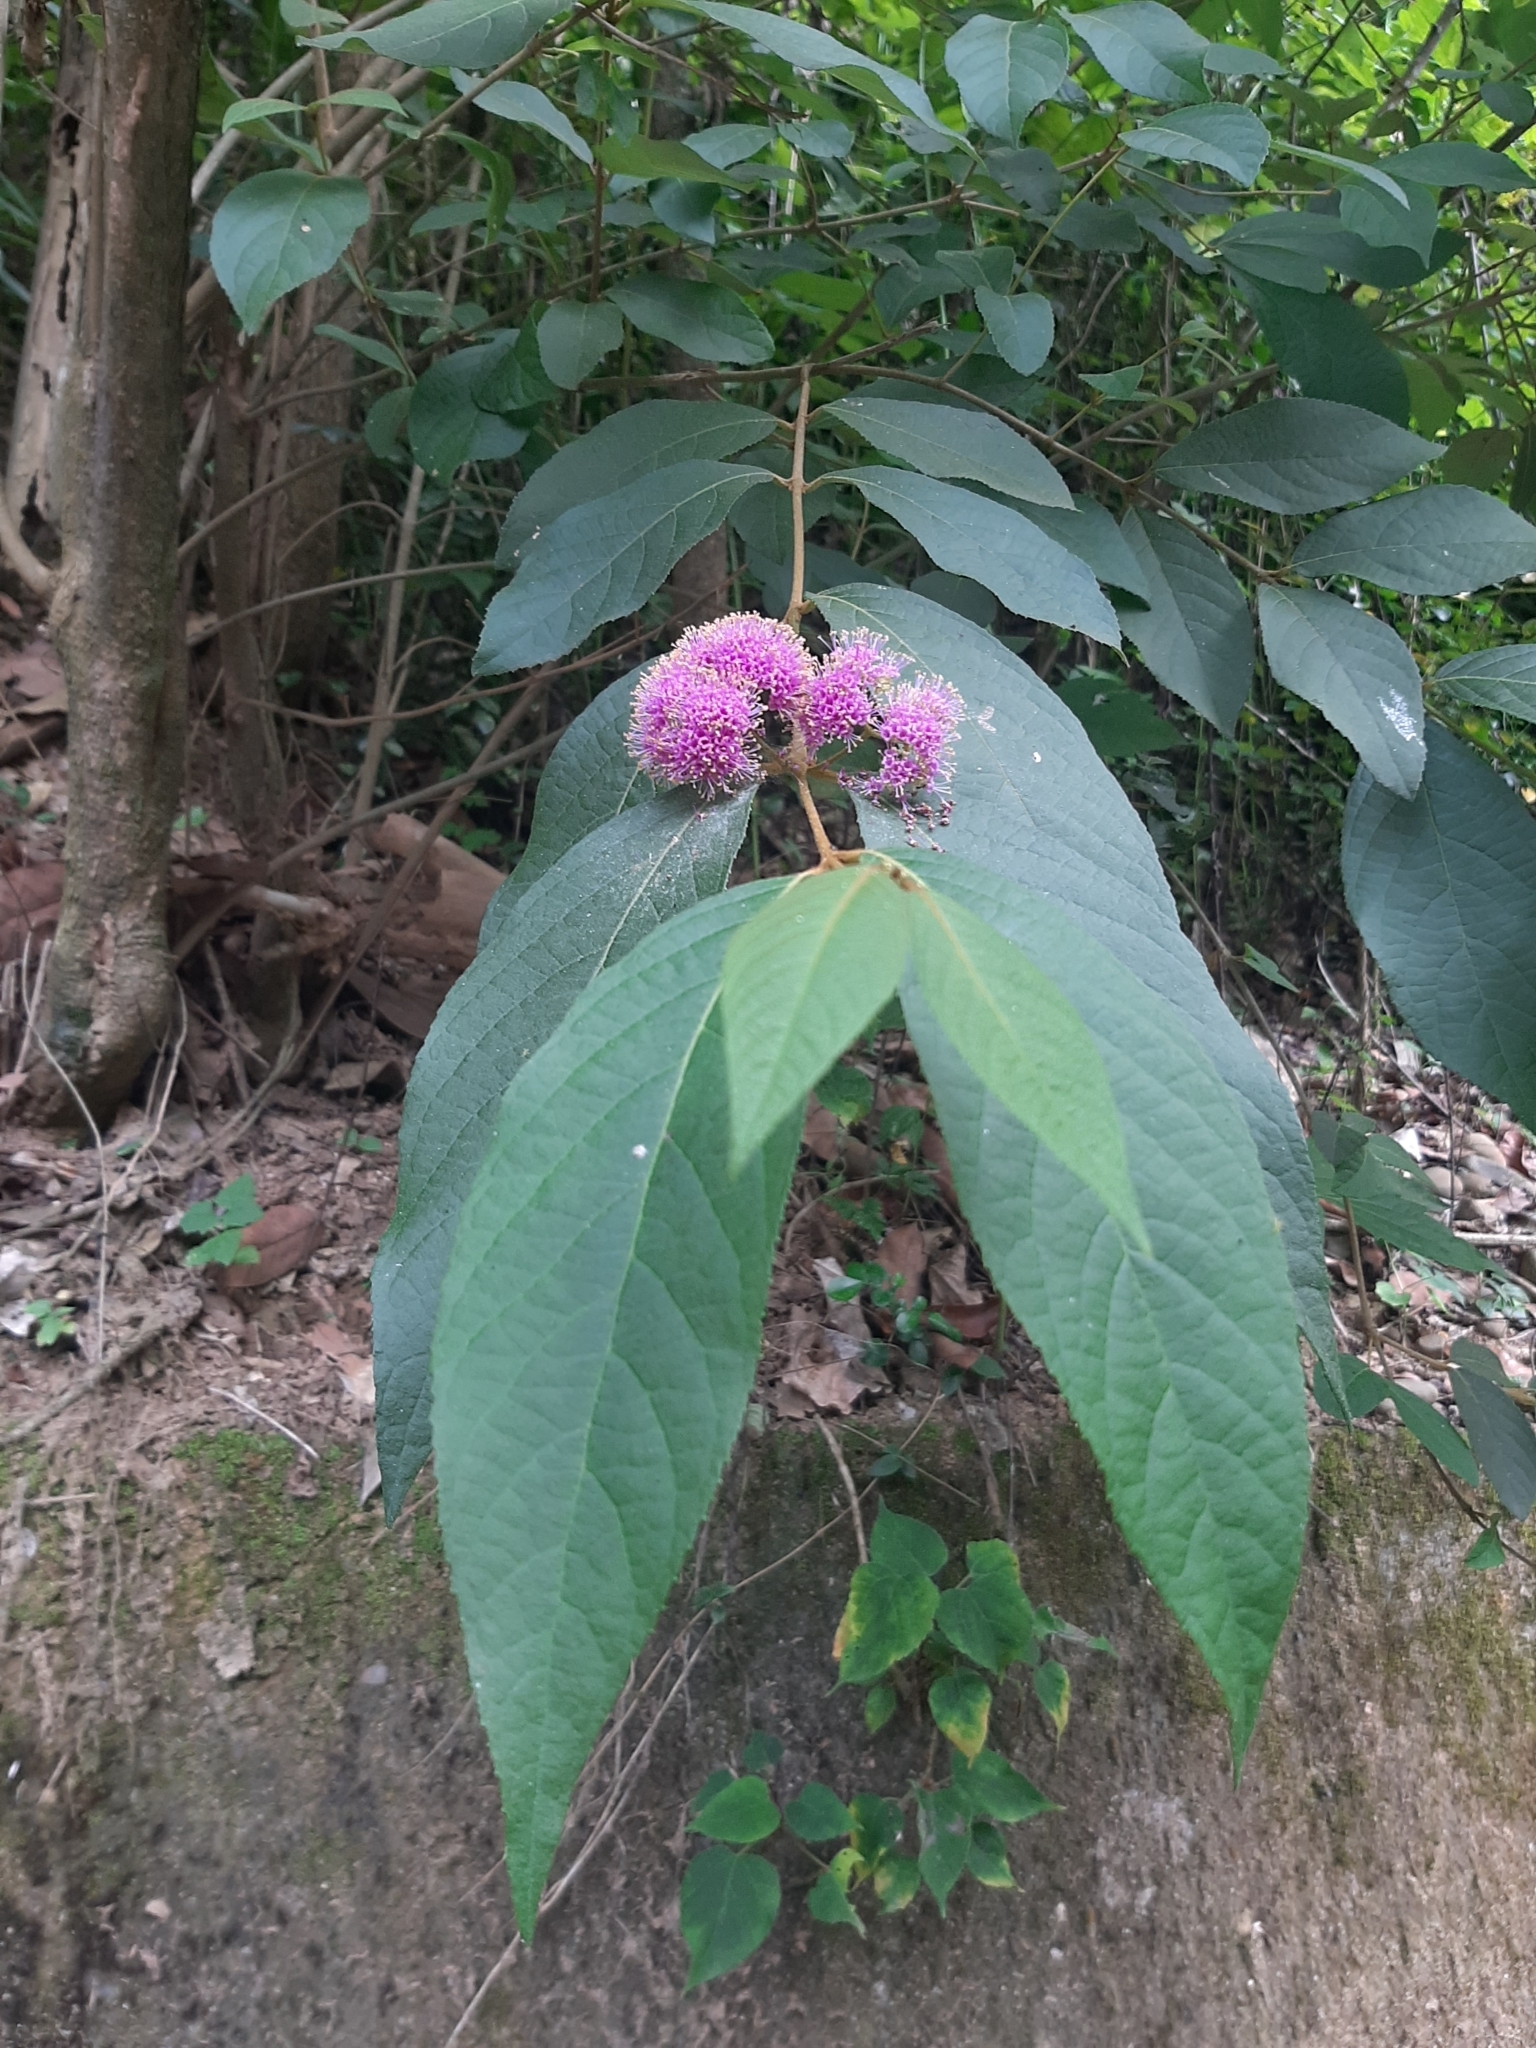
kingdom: Plantae
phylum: Tracheophyta
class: Magnoliopsida
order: Lamiales
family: Lamiaceae
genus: Callicarpa
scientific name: Callicarpa pedunculata
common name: Velvetleaf
